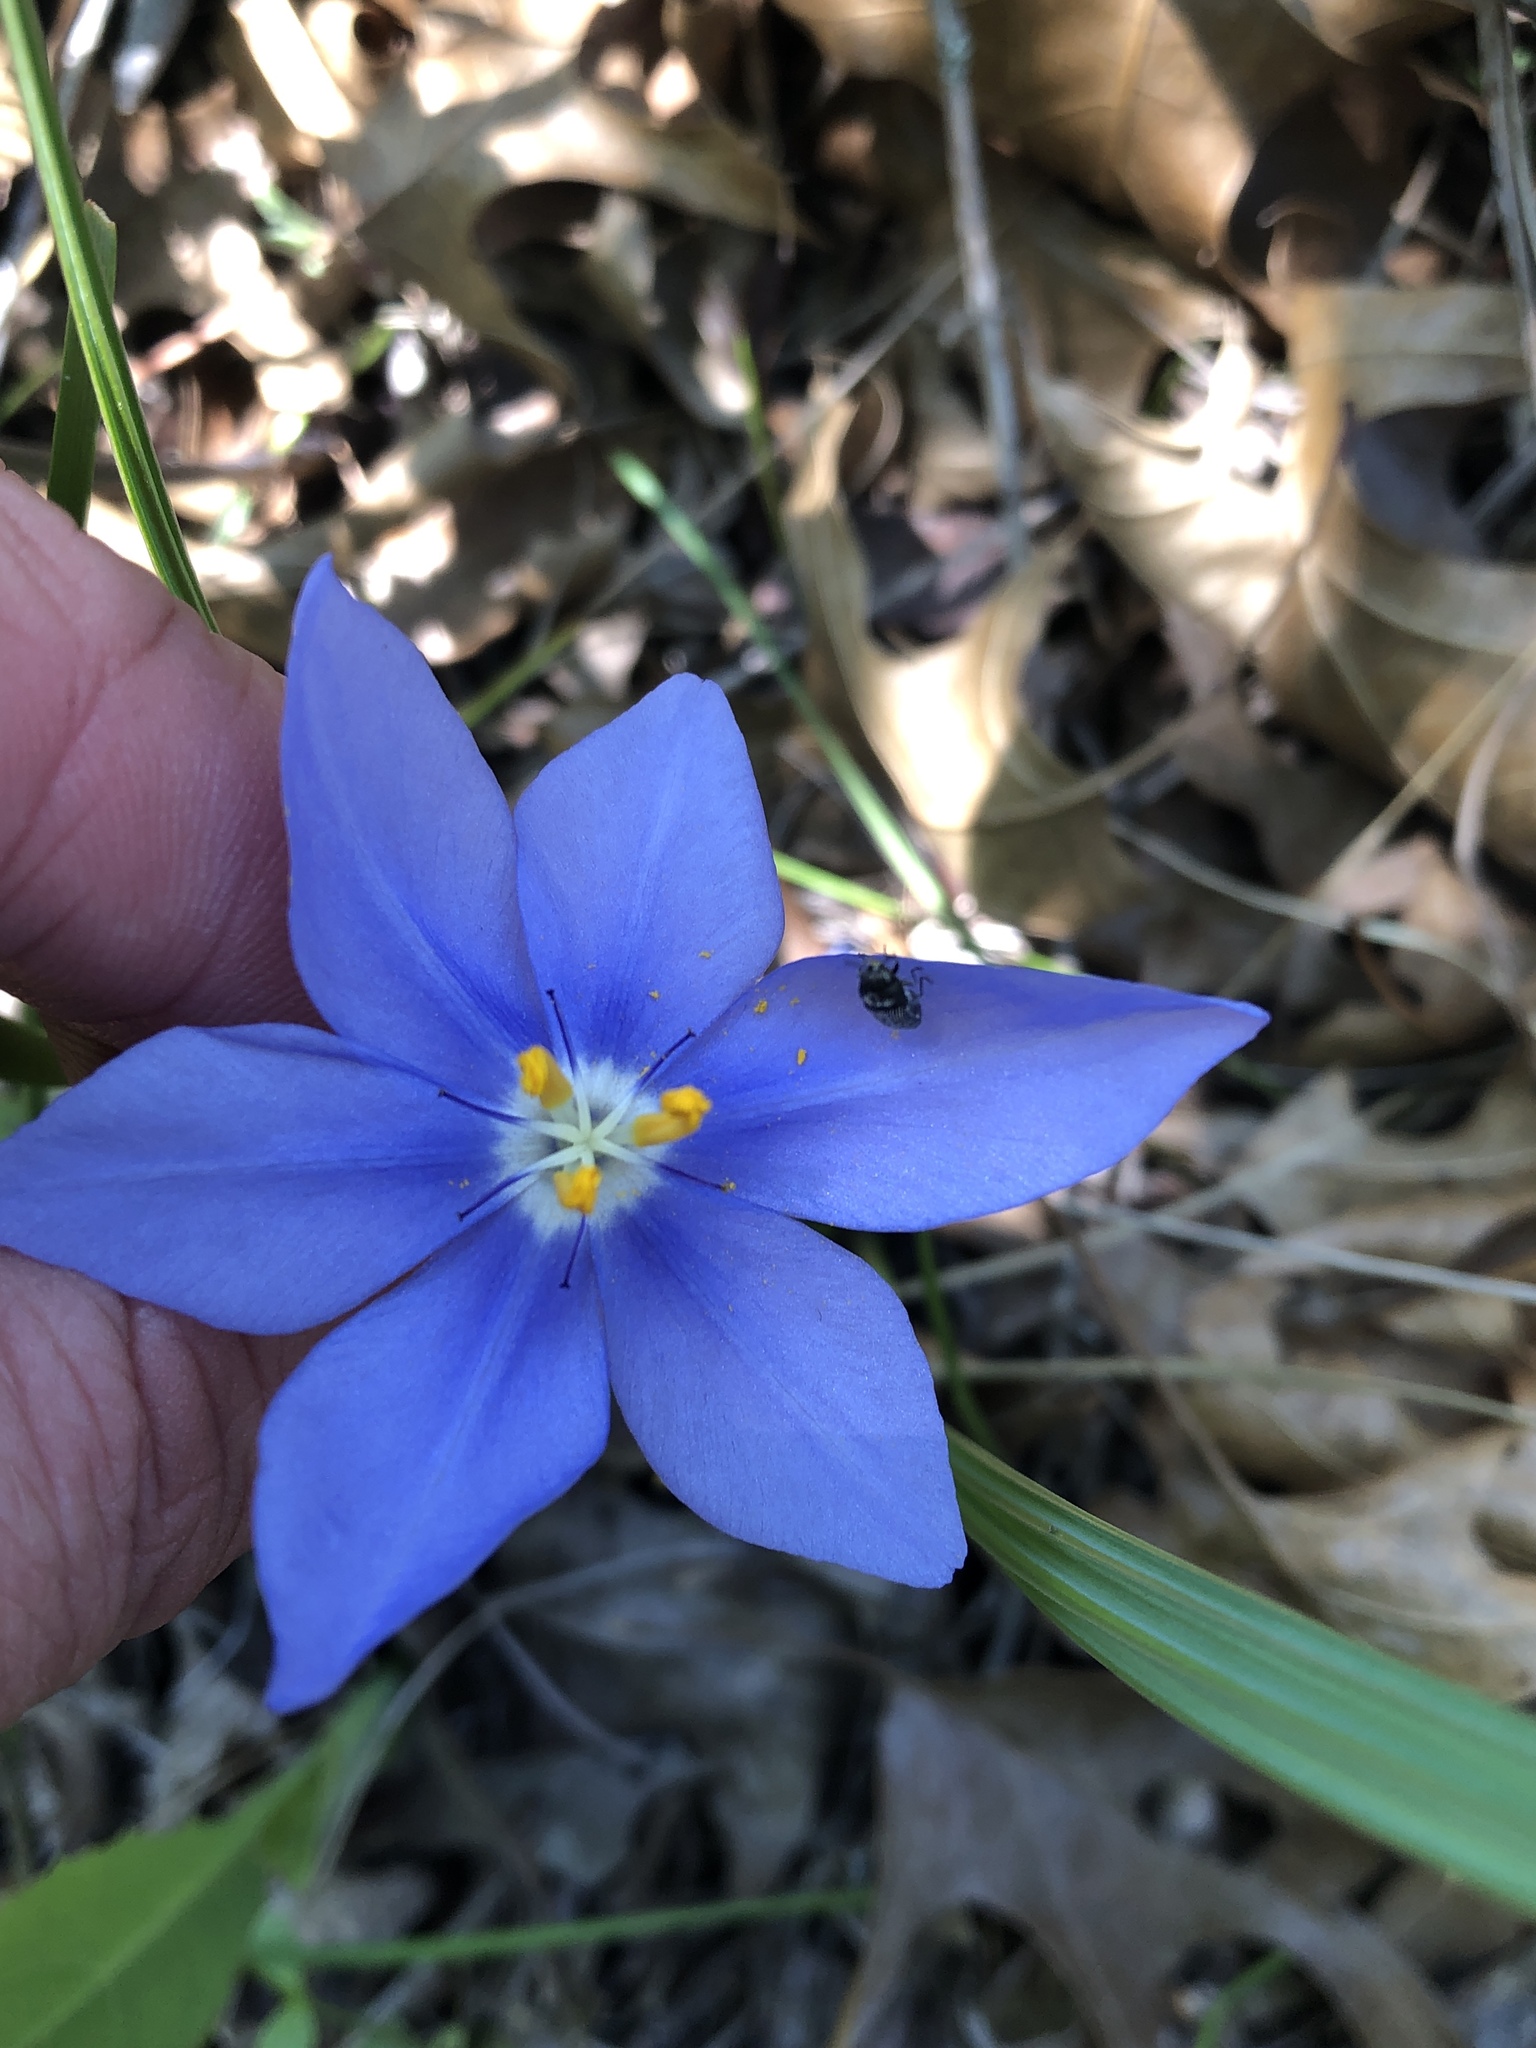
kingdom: Plantae
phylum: Tracheophyta
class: Liliopsida
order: Asparagales
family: Iridaceae
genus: Nemastylis
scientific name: Nemastylis geminiflora
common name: Prairie celestial
